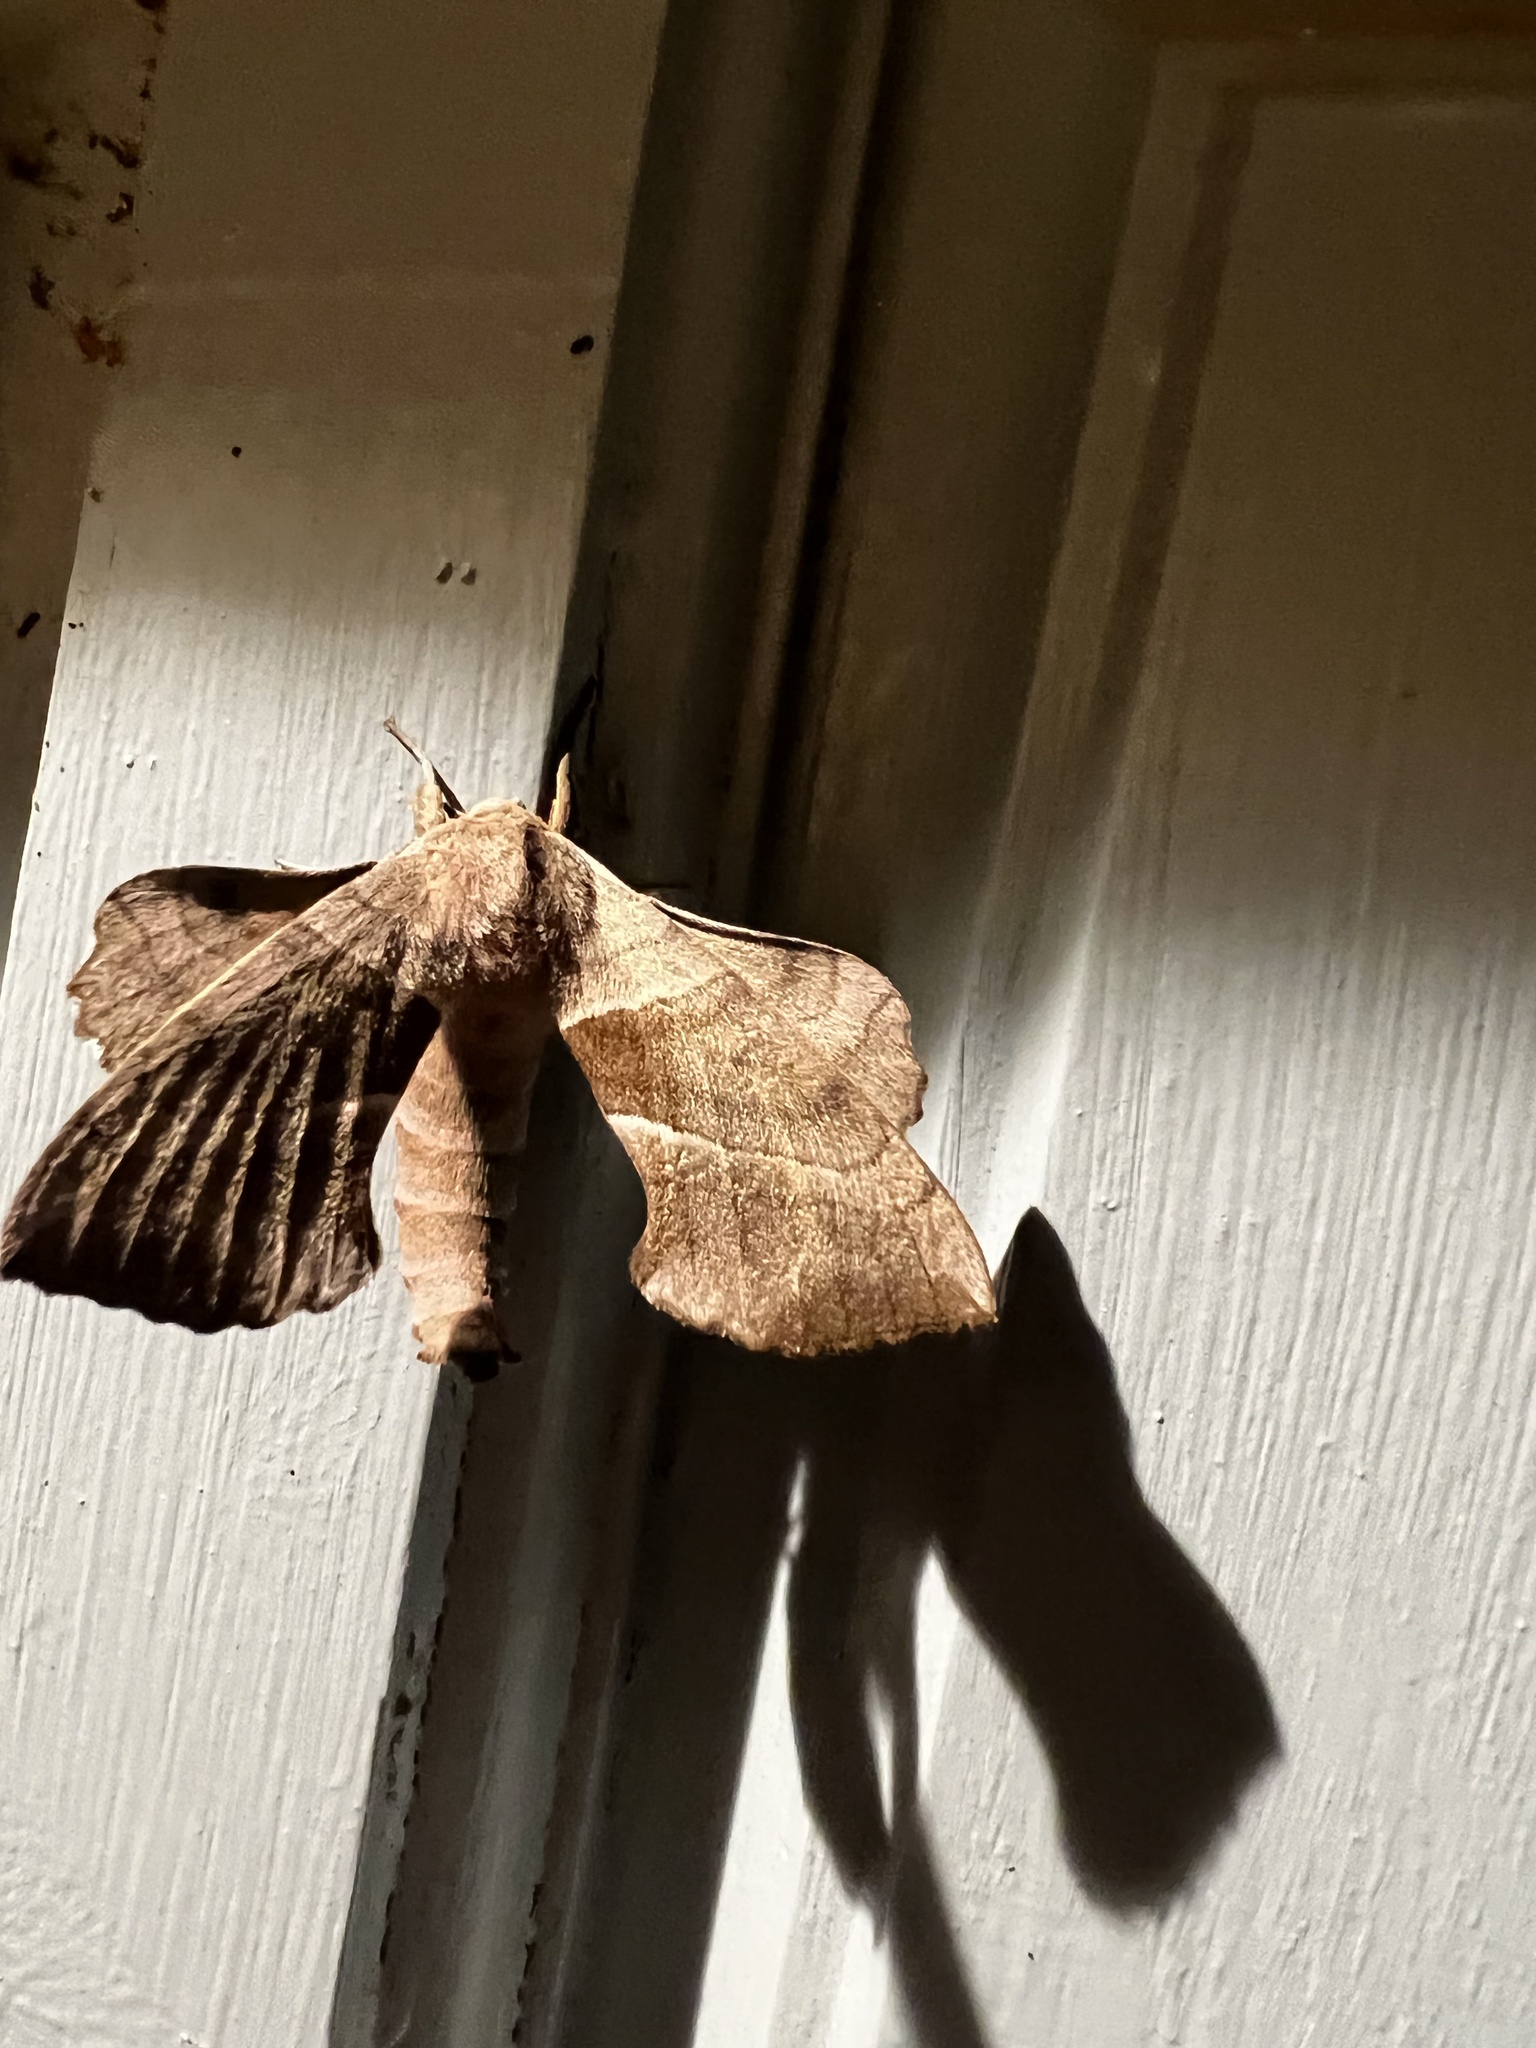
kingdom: Animalia
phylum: Arthropoda
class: Insecta
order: Lepidoptera
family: Sphingidae
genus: Amorpha
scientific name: Amorpha juglandis
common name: Walnut sphinx
